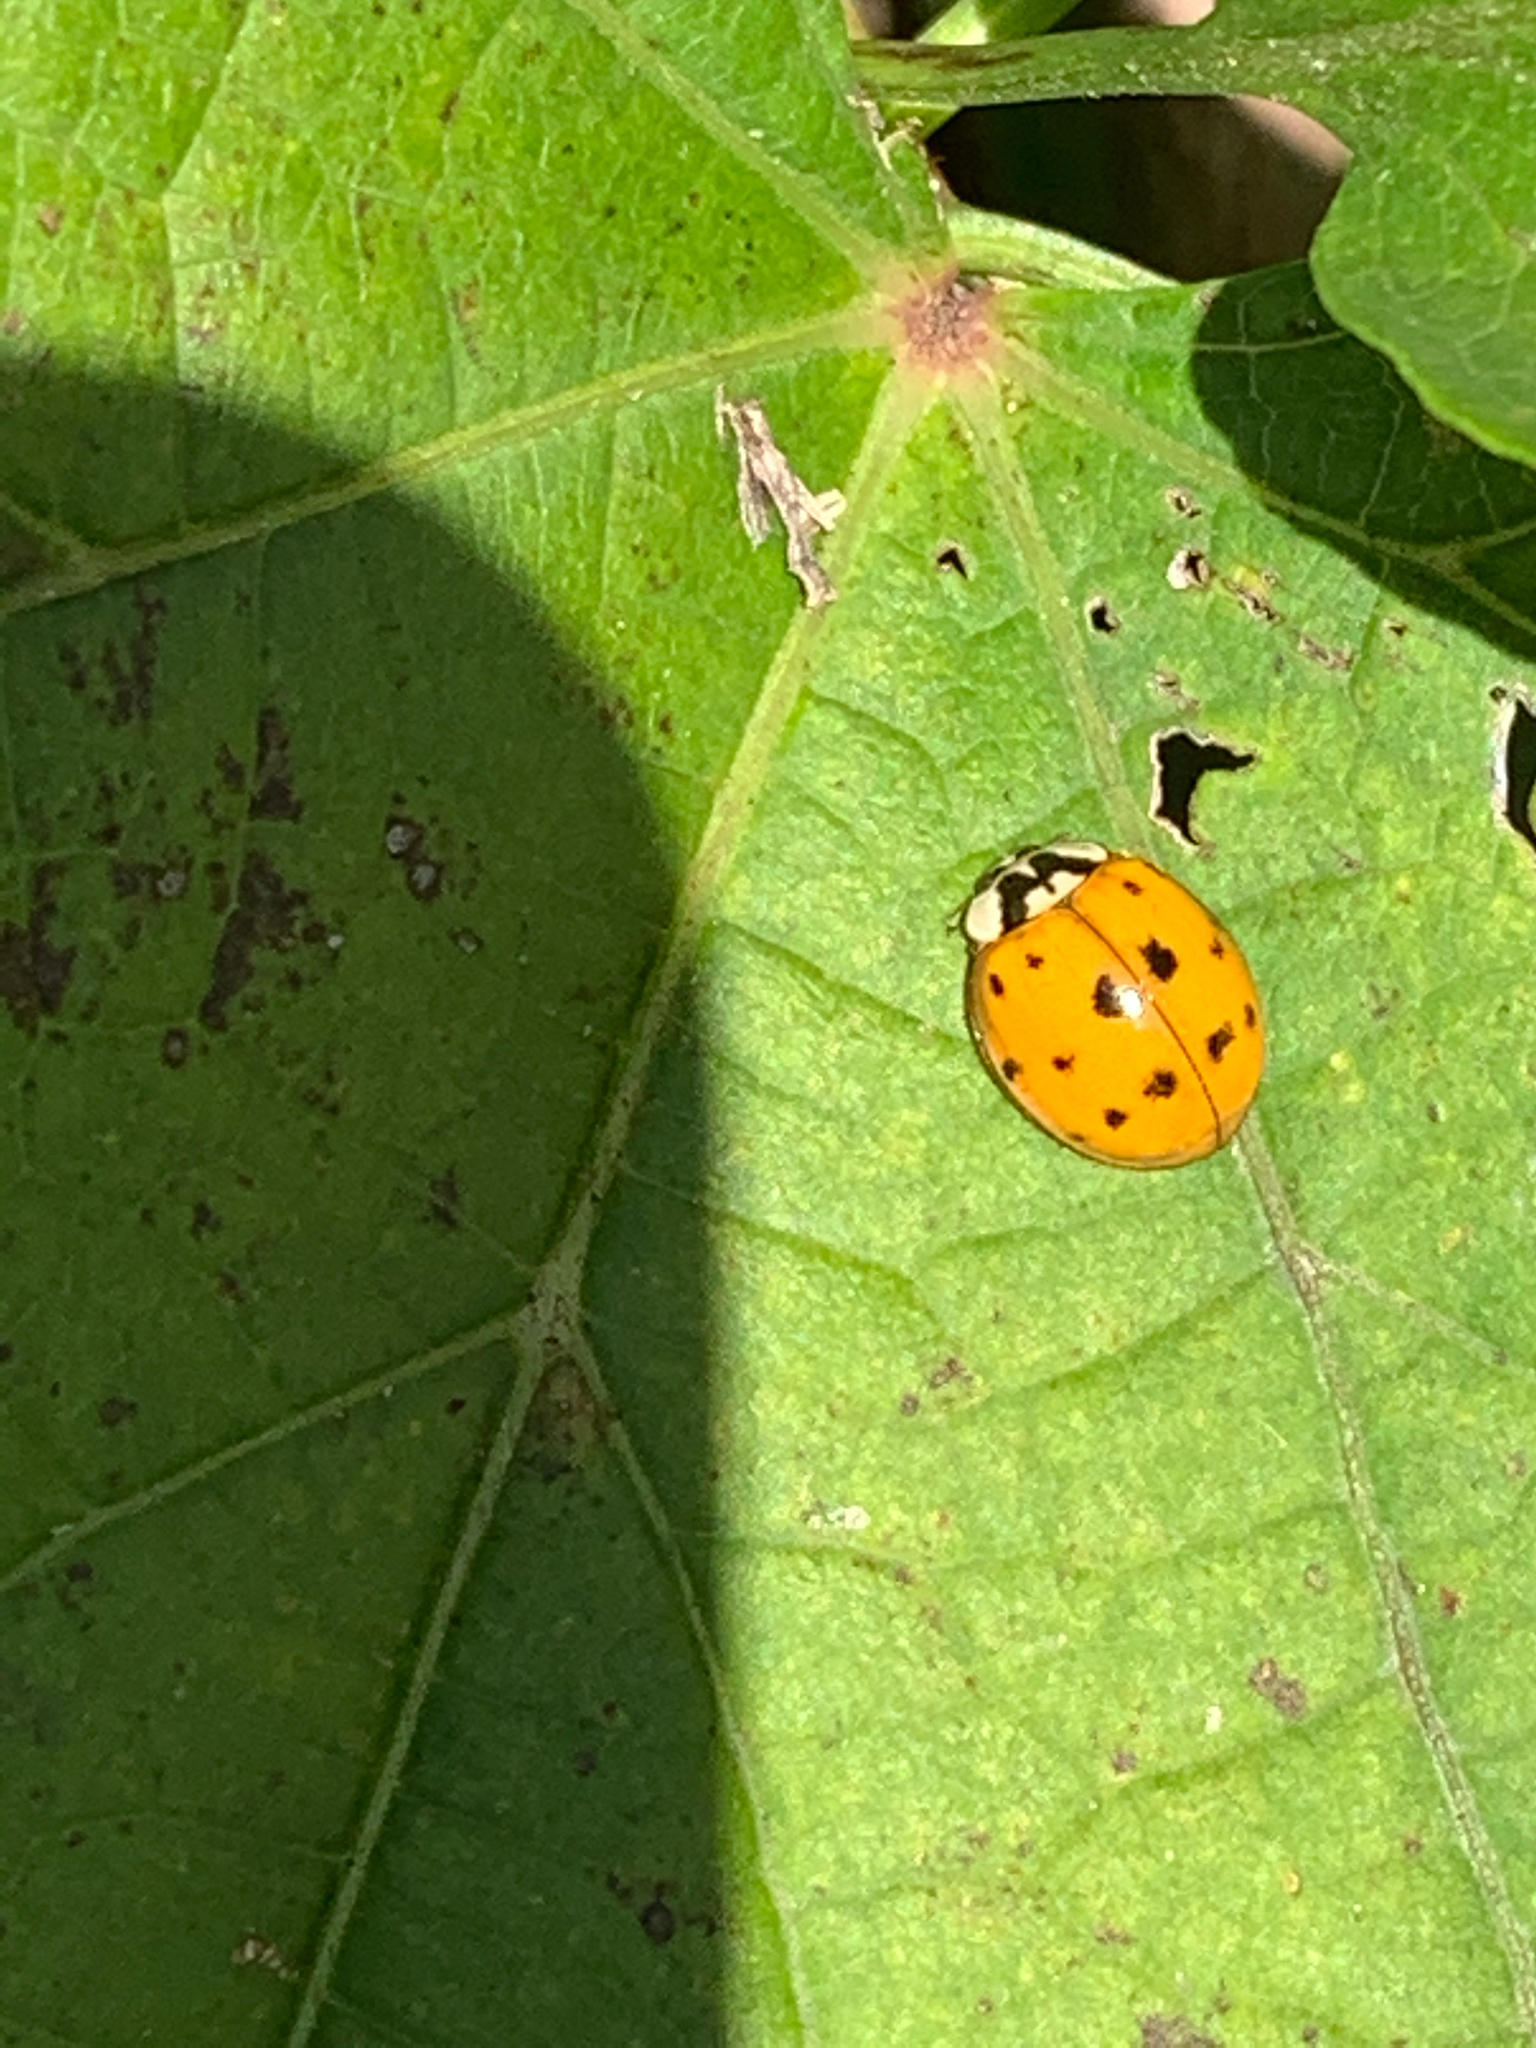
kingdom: Animalia
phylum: Arthropoda
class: Insecta
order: Coleoptera
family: Coccinellidae
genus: Harmonia
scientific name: Harmonia axyridis
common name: Harlequin ladybird
